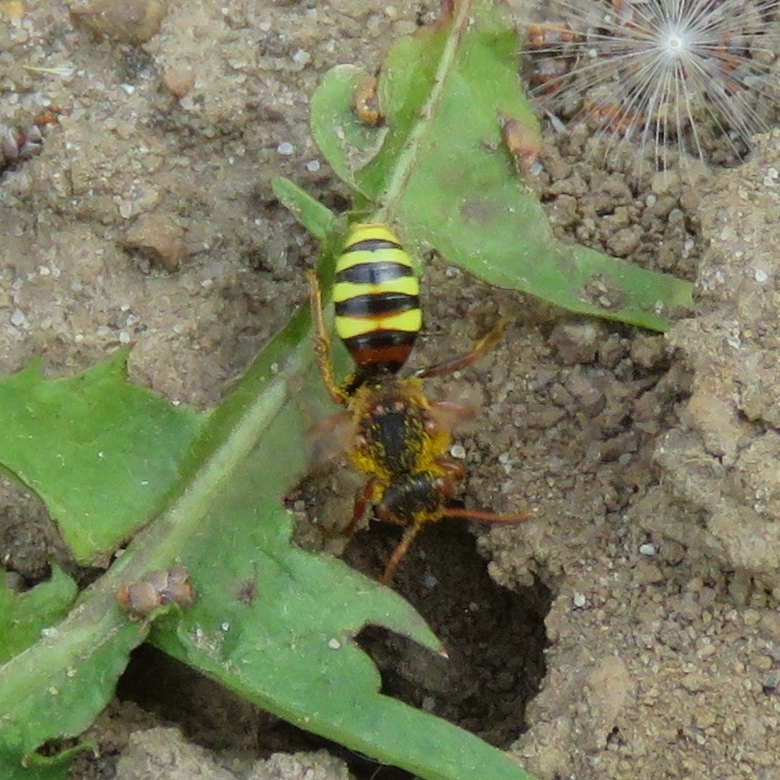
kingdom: Animalia
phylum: Arthropoda
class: Insecta
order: Hymenoptera
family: Apidae
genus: Nomada
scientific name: Nomada lathburiana
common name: Lathbury's nomad bee
